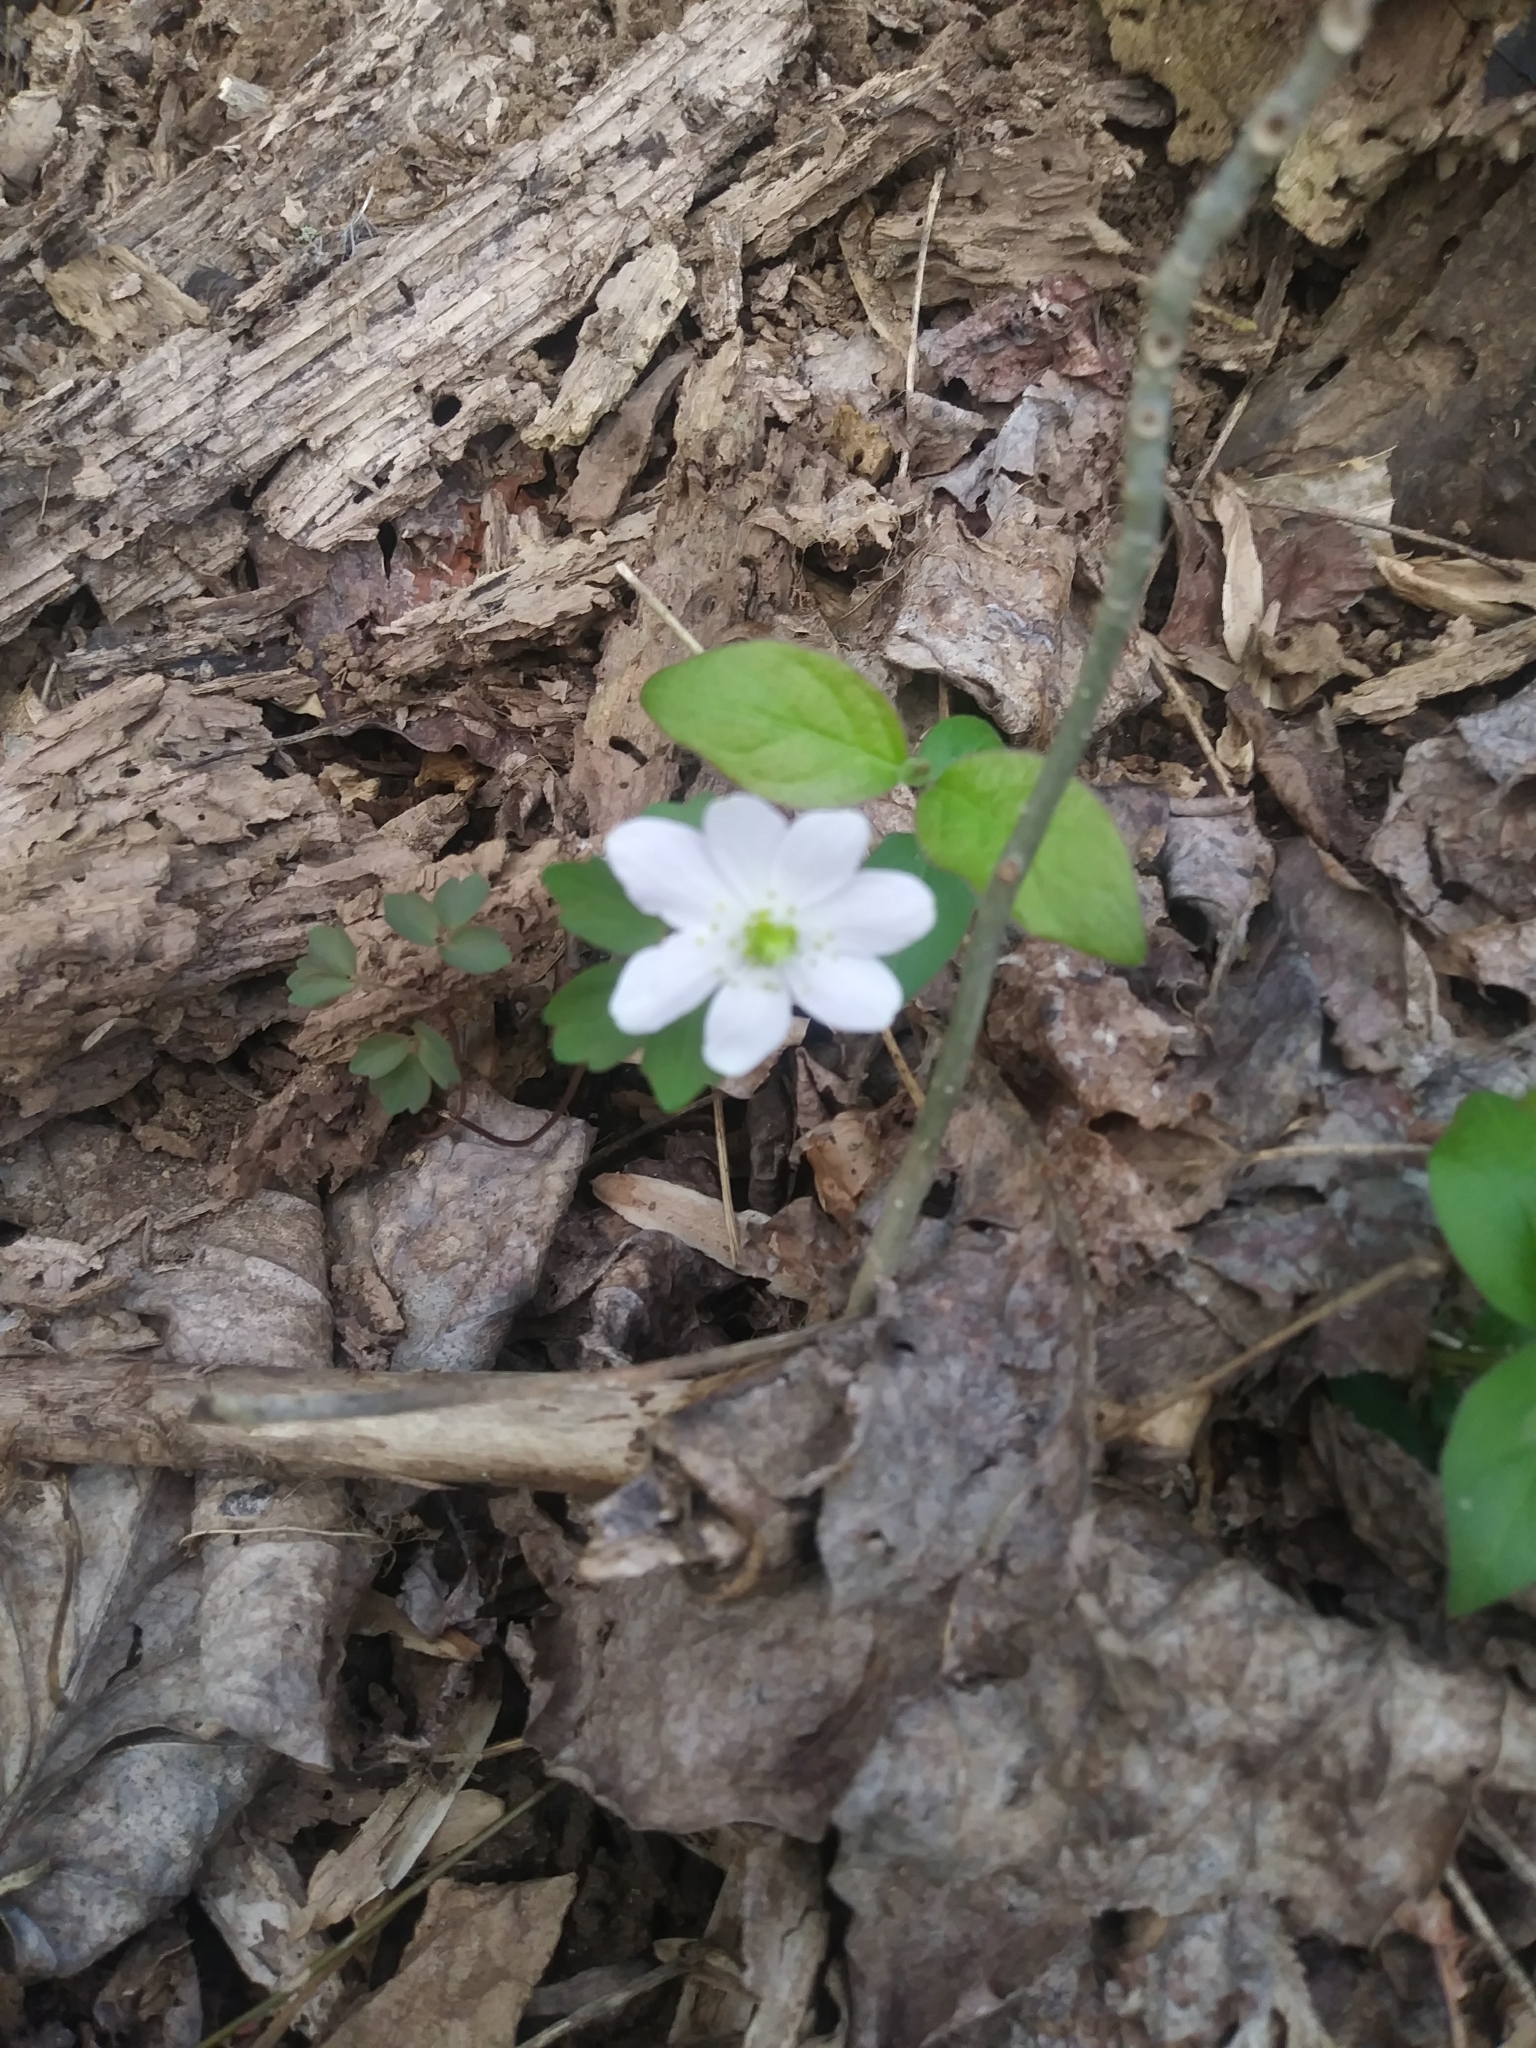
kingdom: Plantae
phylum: Tracheophyta
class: Magnoliopsida
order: Ranunculales
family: Ranunculaceae
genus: Thalictrum
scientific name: Thalictrum thalictroides
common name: Rue-anemone
